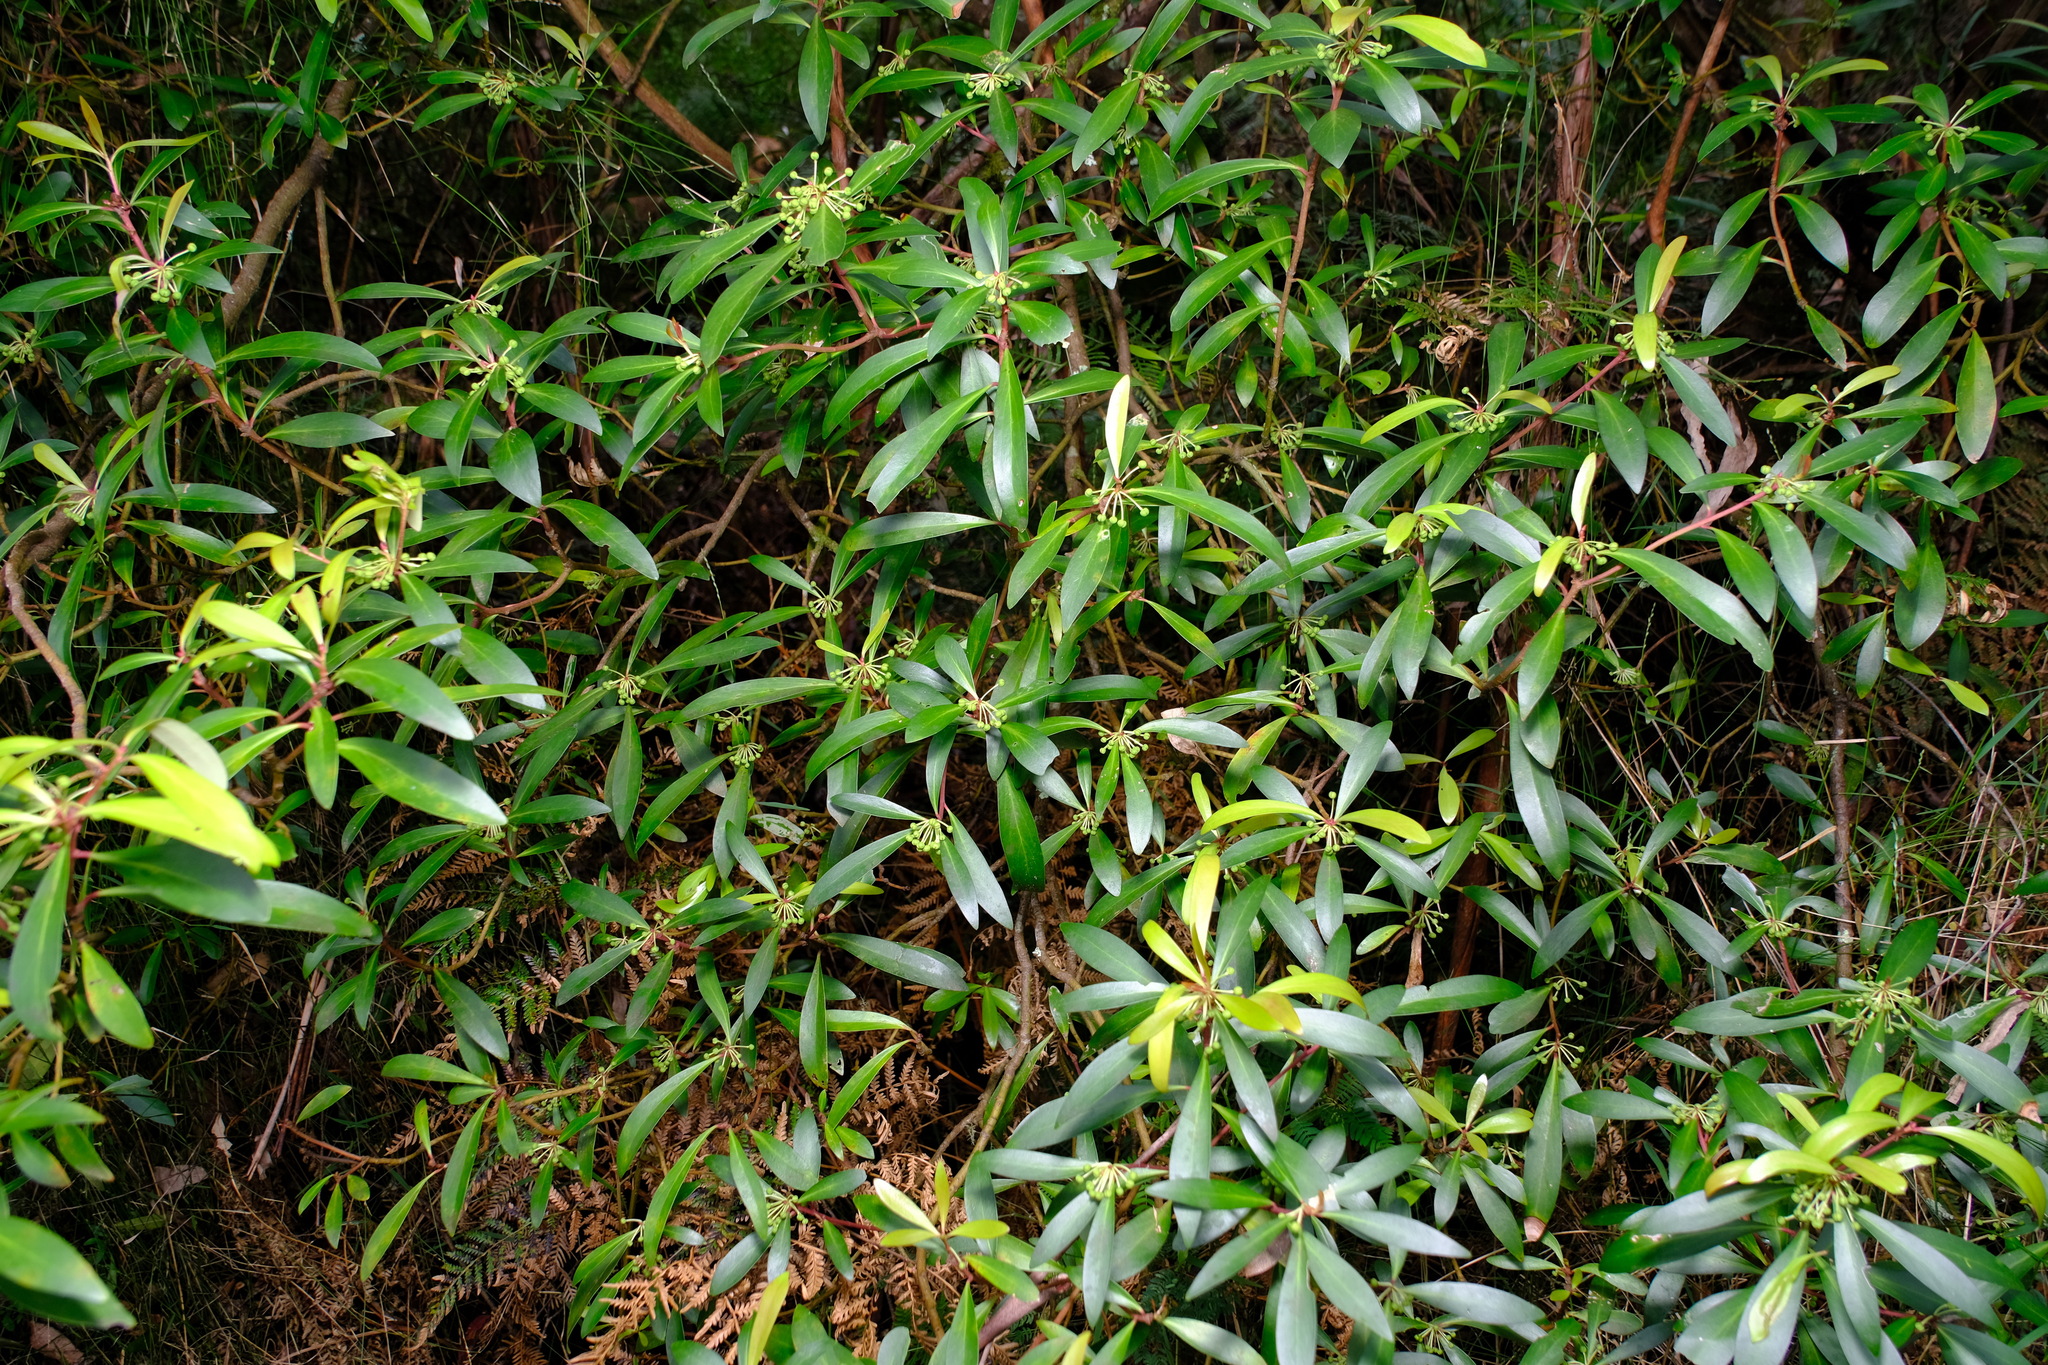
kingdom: Plantae
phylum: Tracheophyta
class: Magnoliopsida
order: Canellales
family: Winteraceae
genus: Drimys
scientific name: Drimys aromatica
